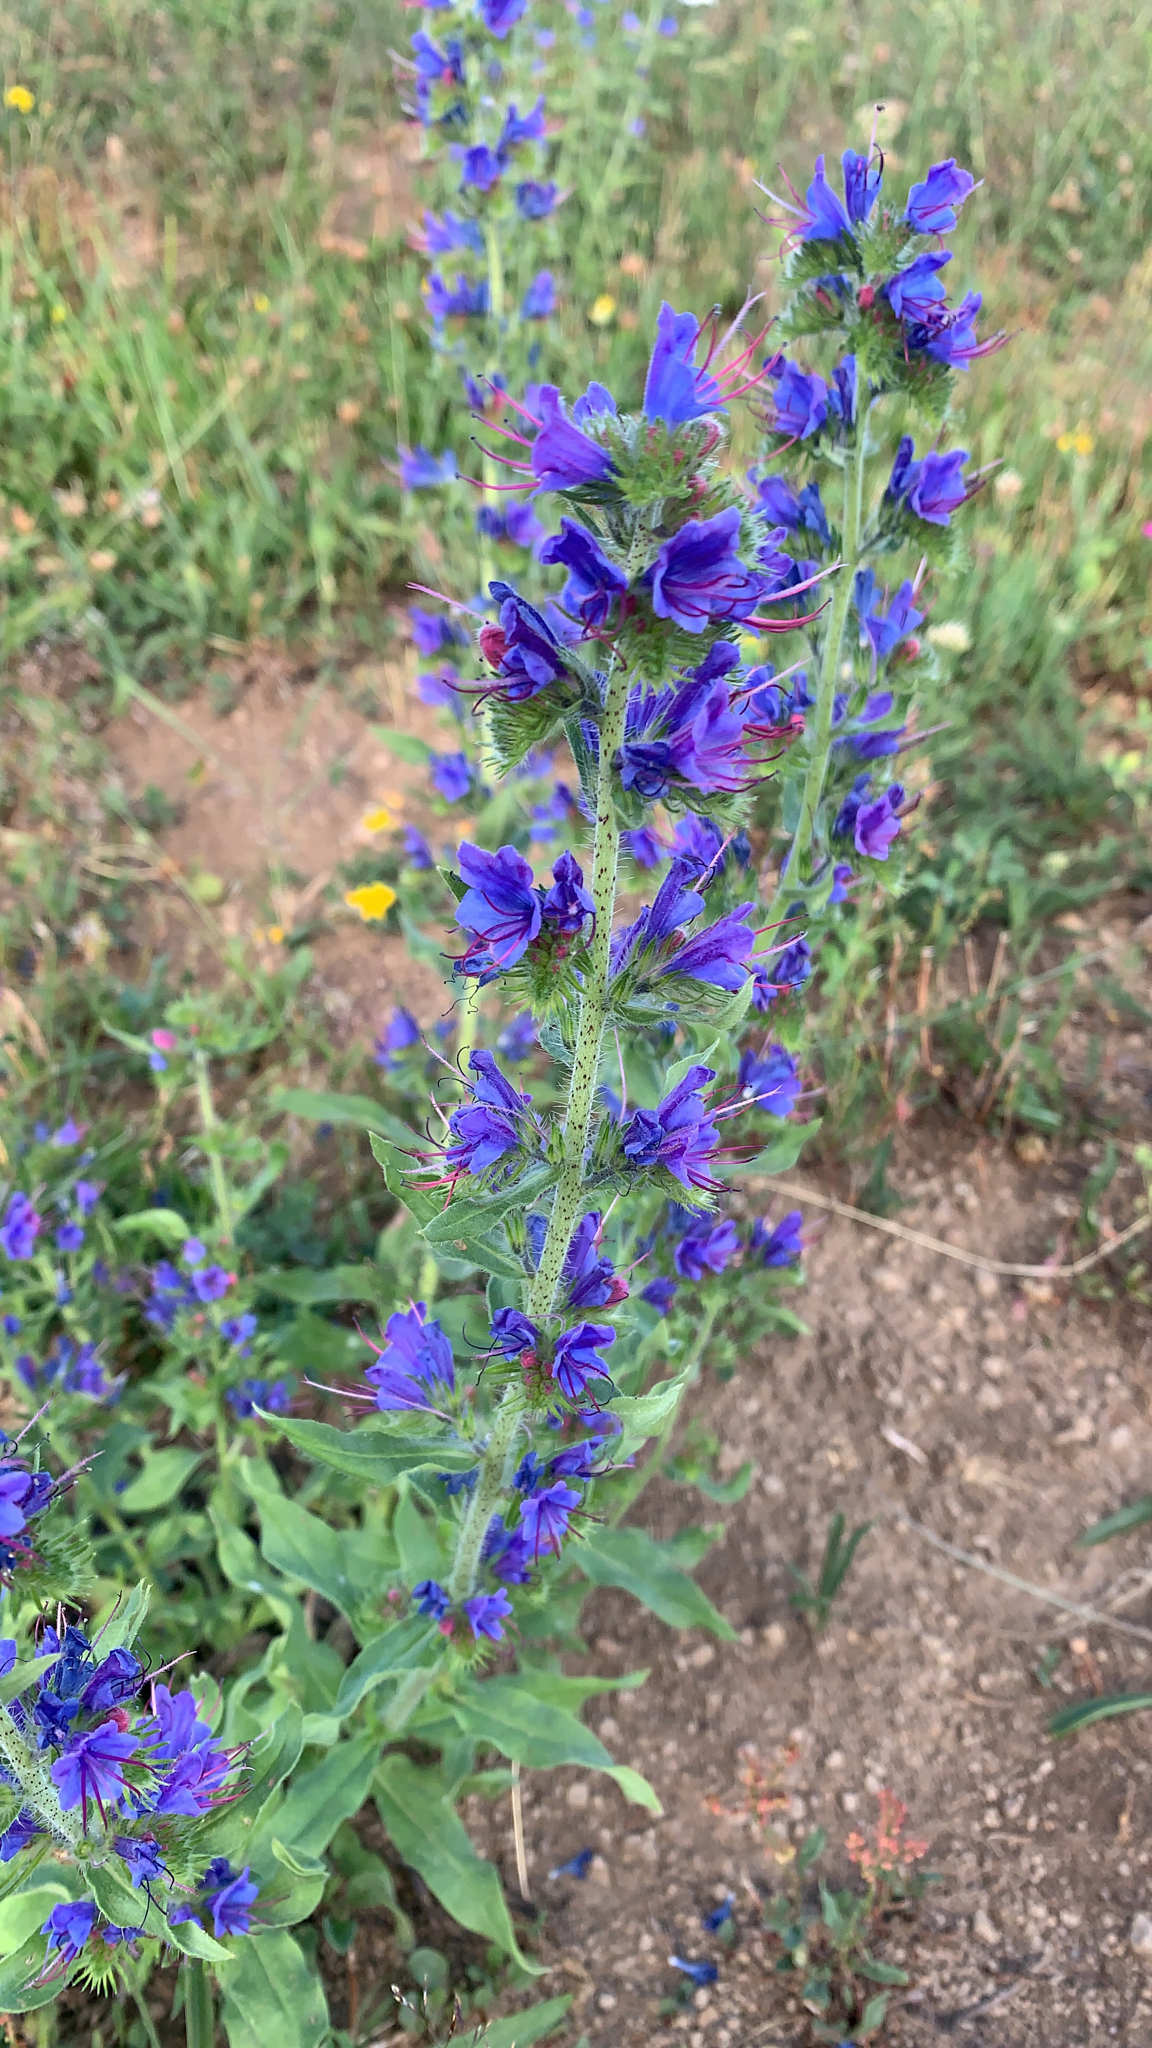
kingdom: Plantae
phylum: Tracheophyta
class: Magnoliopsida
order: Boraginales
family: Boraginaceae
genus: Echium
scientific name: Echium vulgare
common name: Common viper's bugloss
